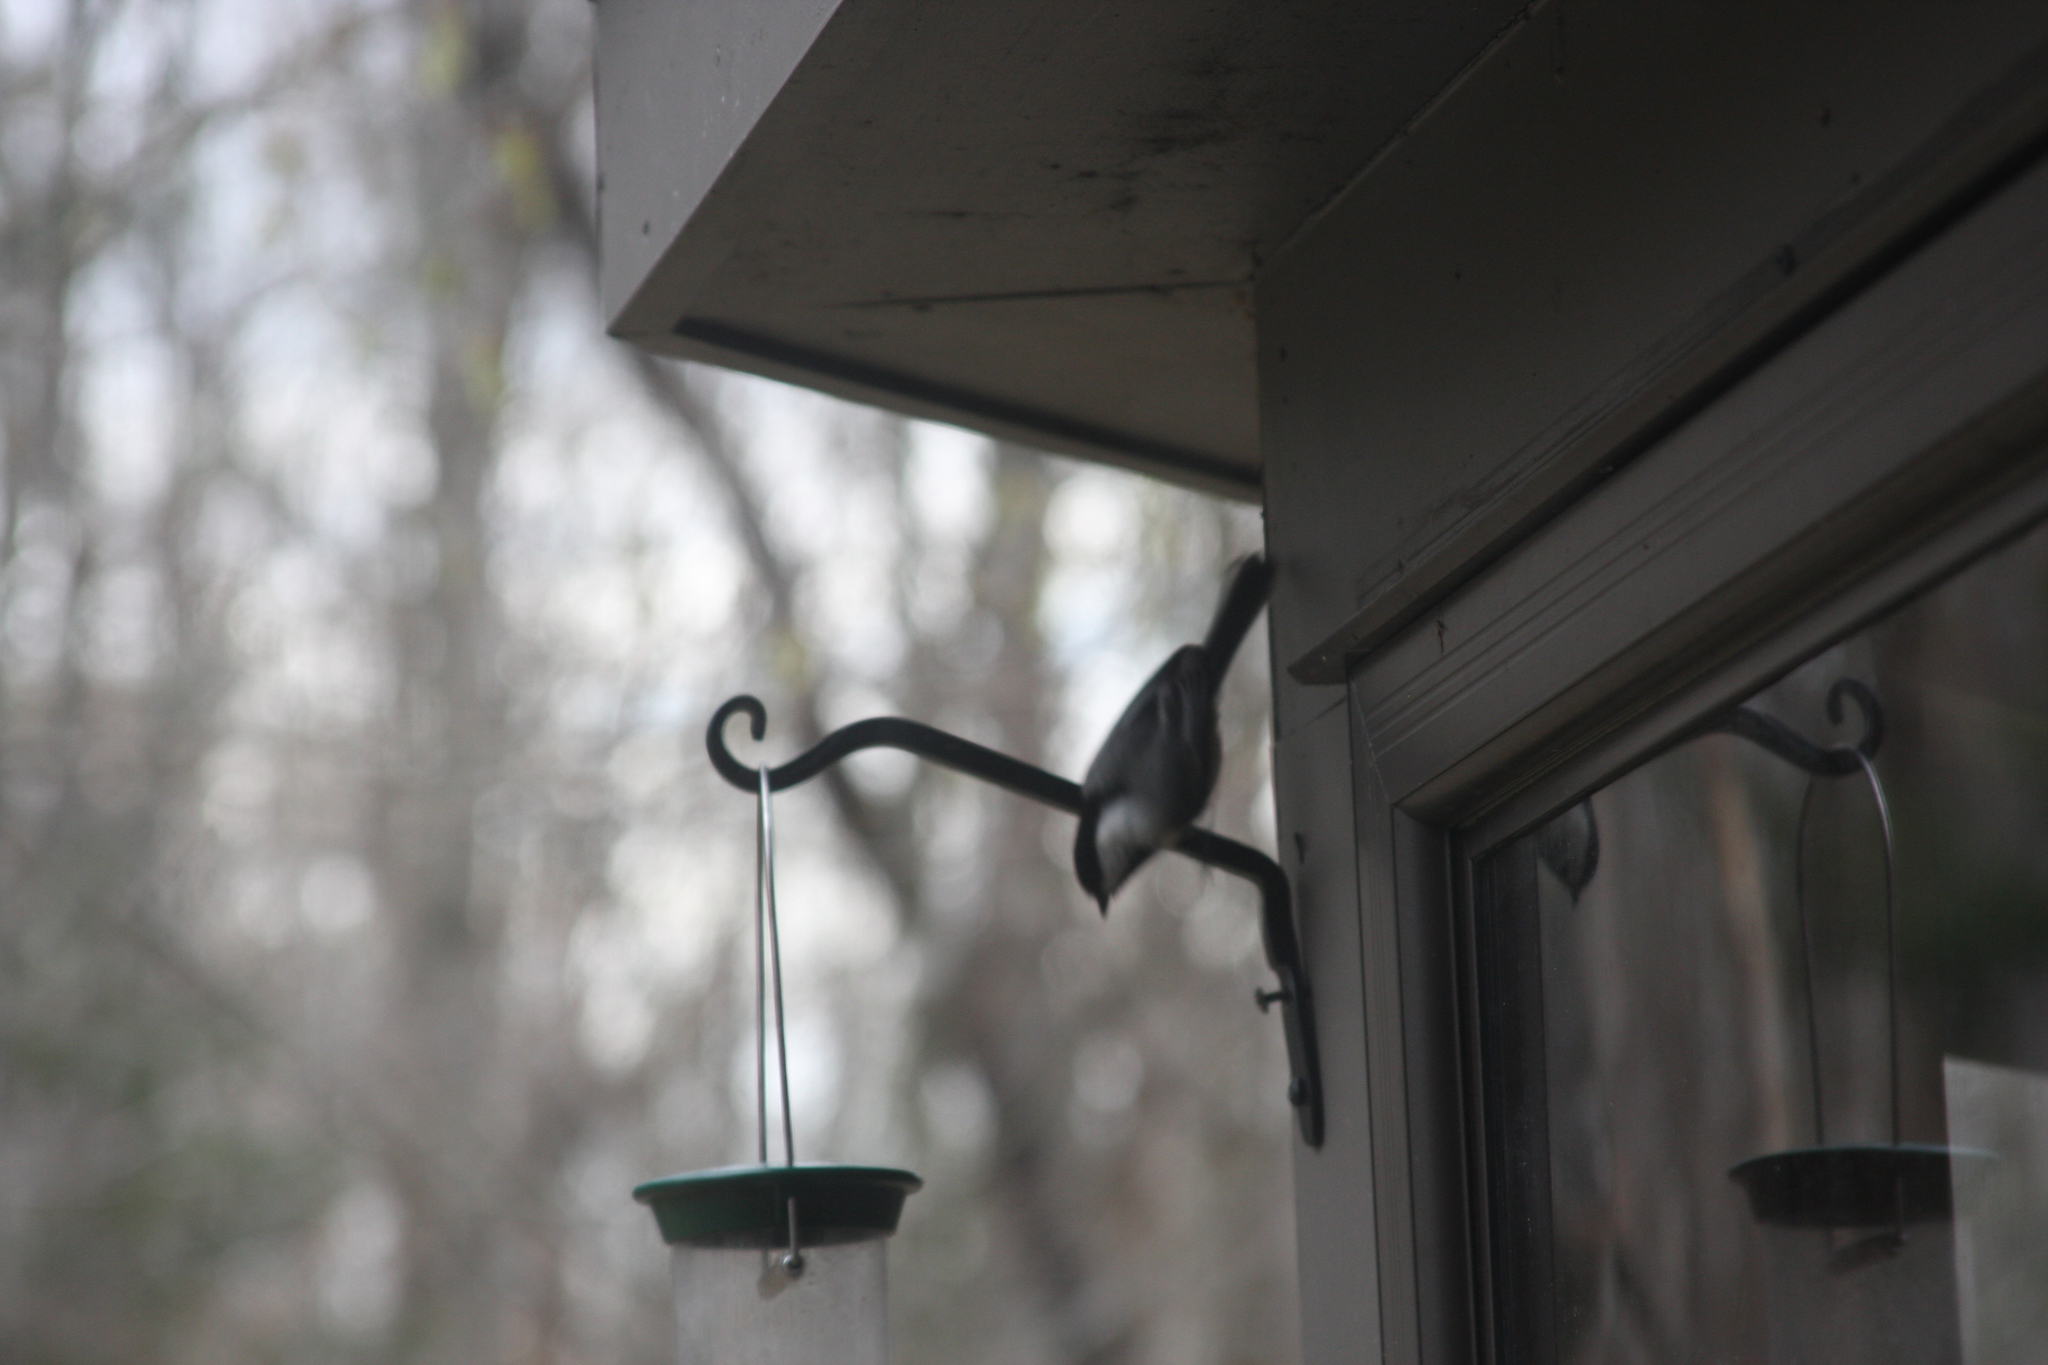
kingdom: Animalia
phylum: Chordata
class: Aves
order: Passeriformes
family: Paridae
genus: Poecile
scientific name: Poecile atricapillus
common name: Black-capped chickadee
